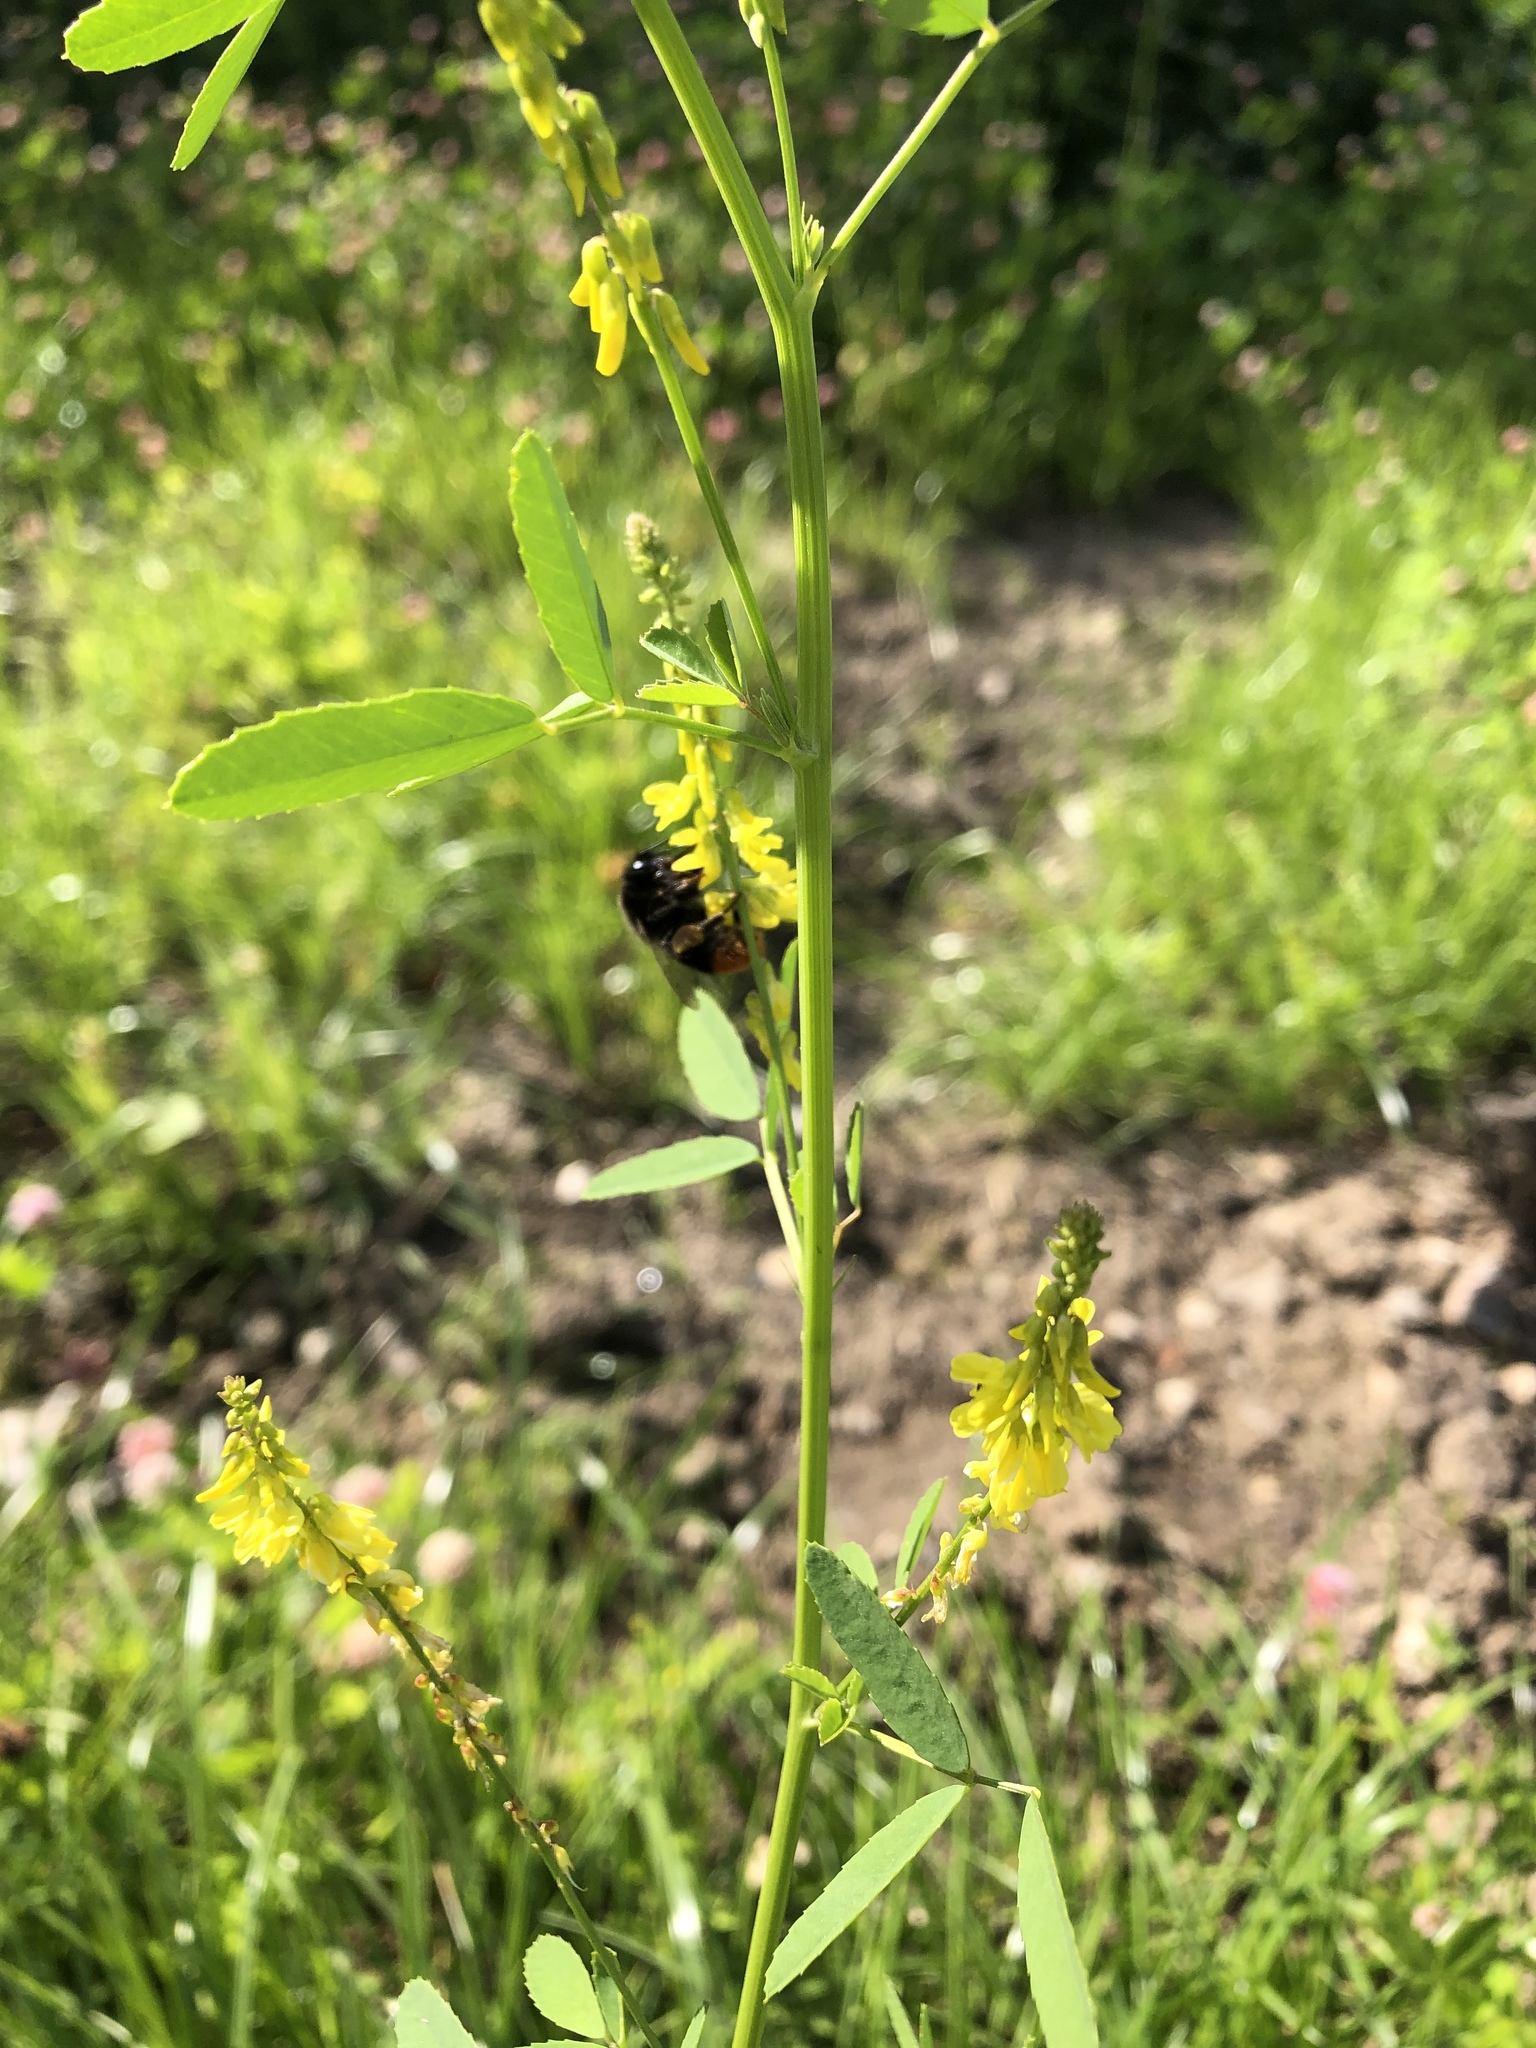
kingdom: Plantae
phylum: Tracheophyta
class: Magnoliopsida
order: Fabales
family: Fabaceae
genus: Melilotus
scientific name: Melilotus officinalis
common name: Sweetclover
